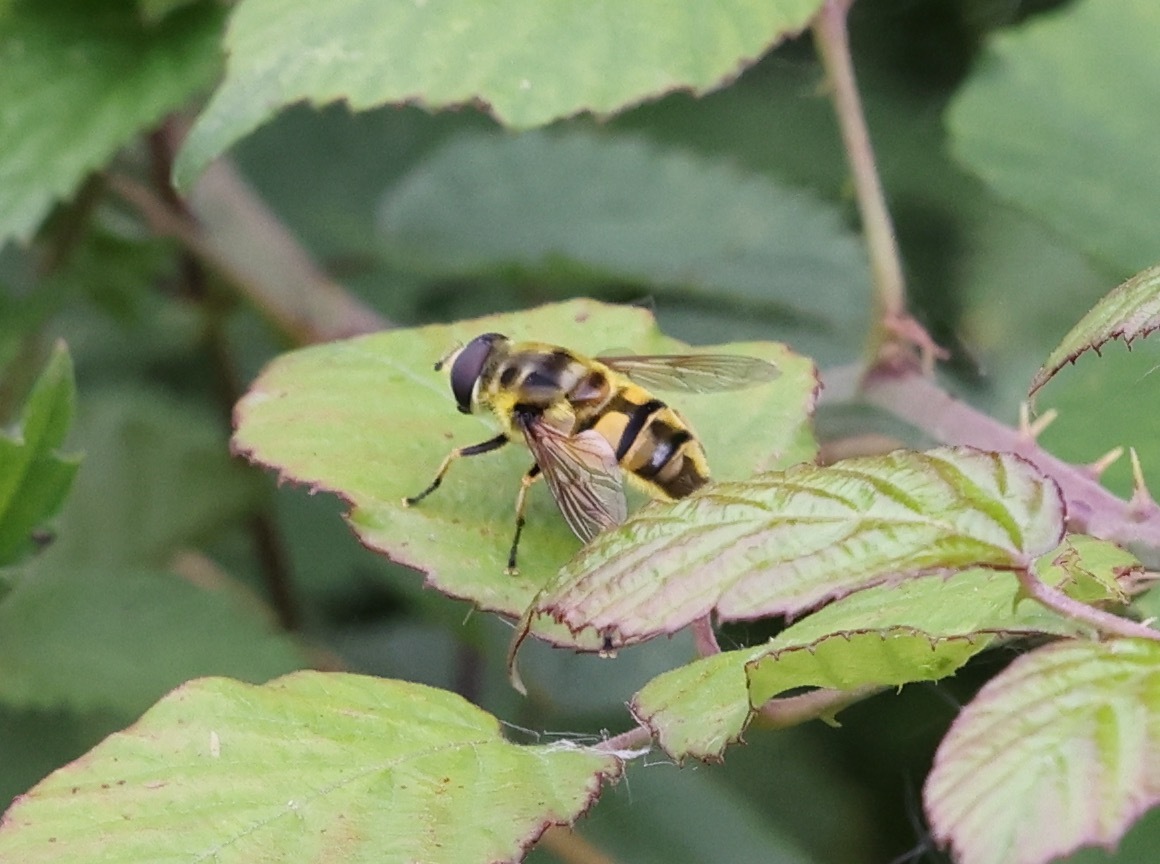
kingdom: Animalia
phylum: Arthropoda
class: Insecta
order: Diptera
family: Syrphidae
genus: Myathropa
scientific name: Myathropa florea
